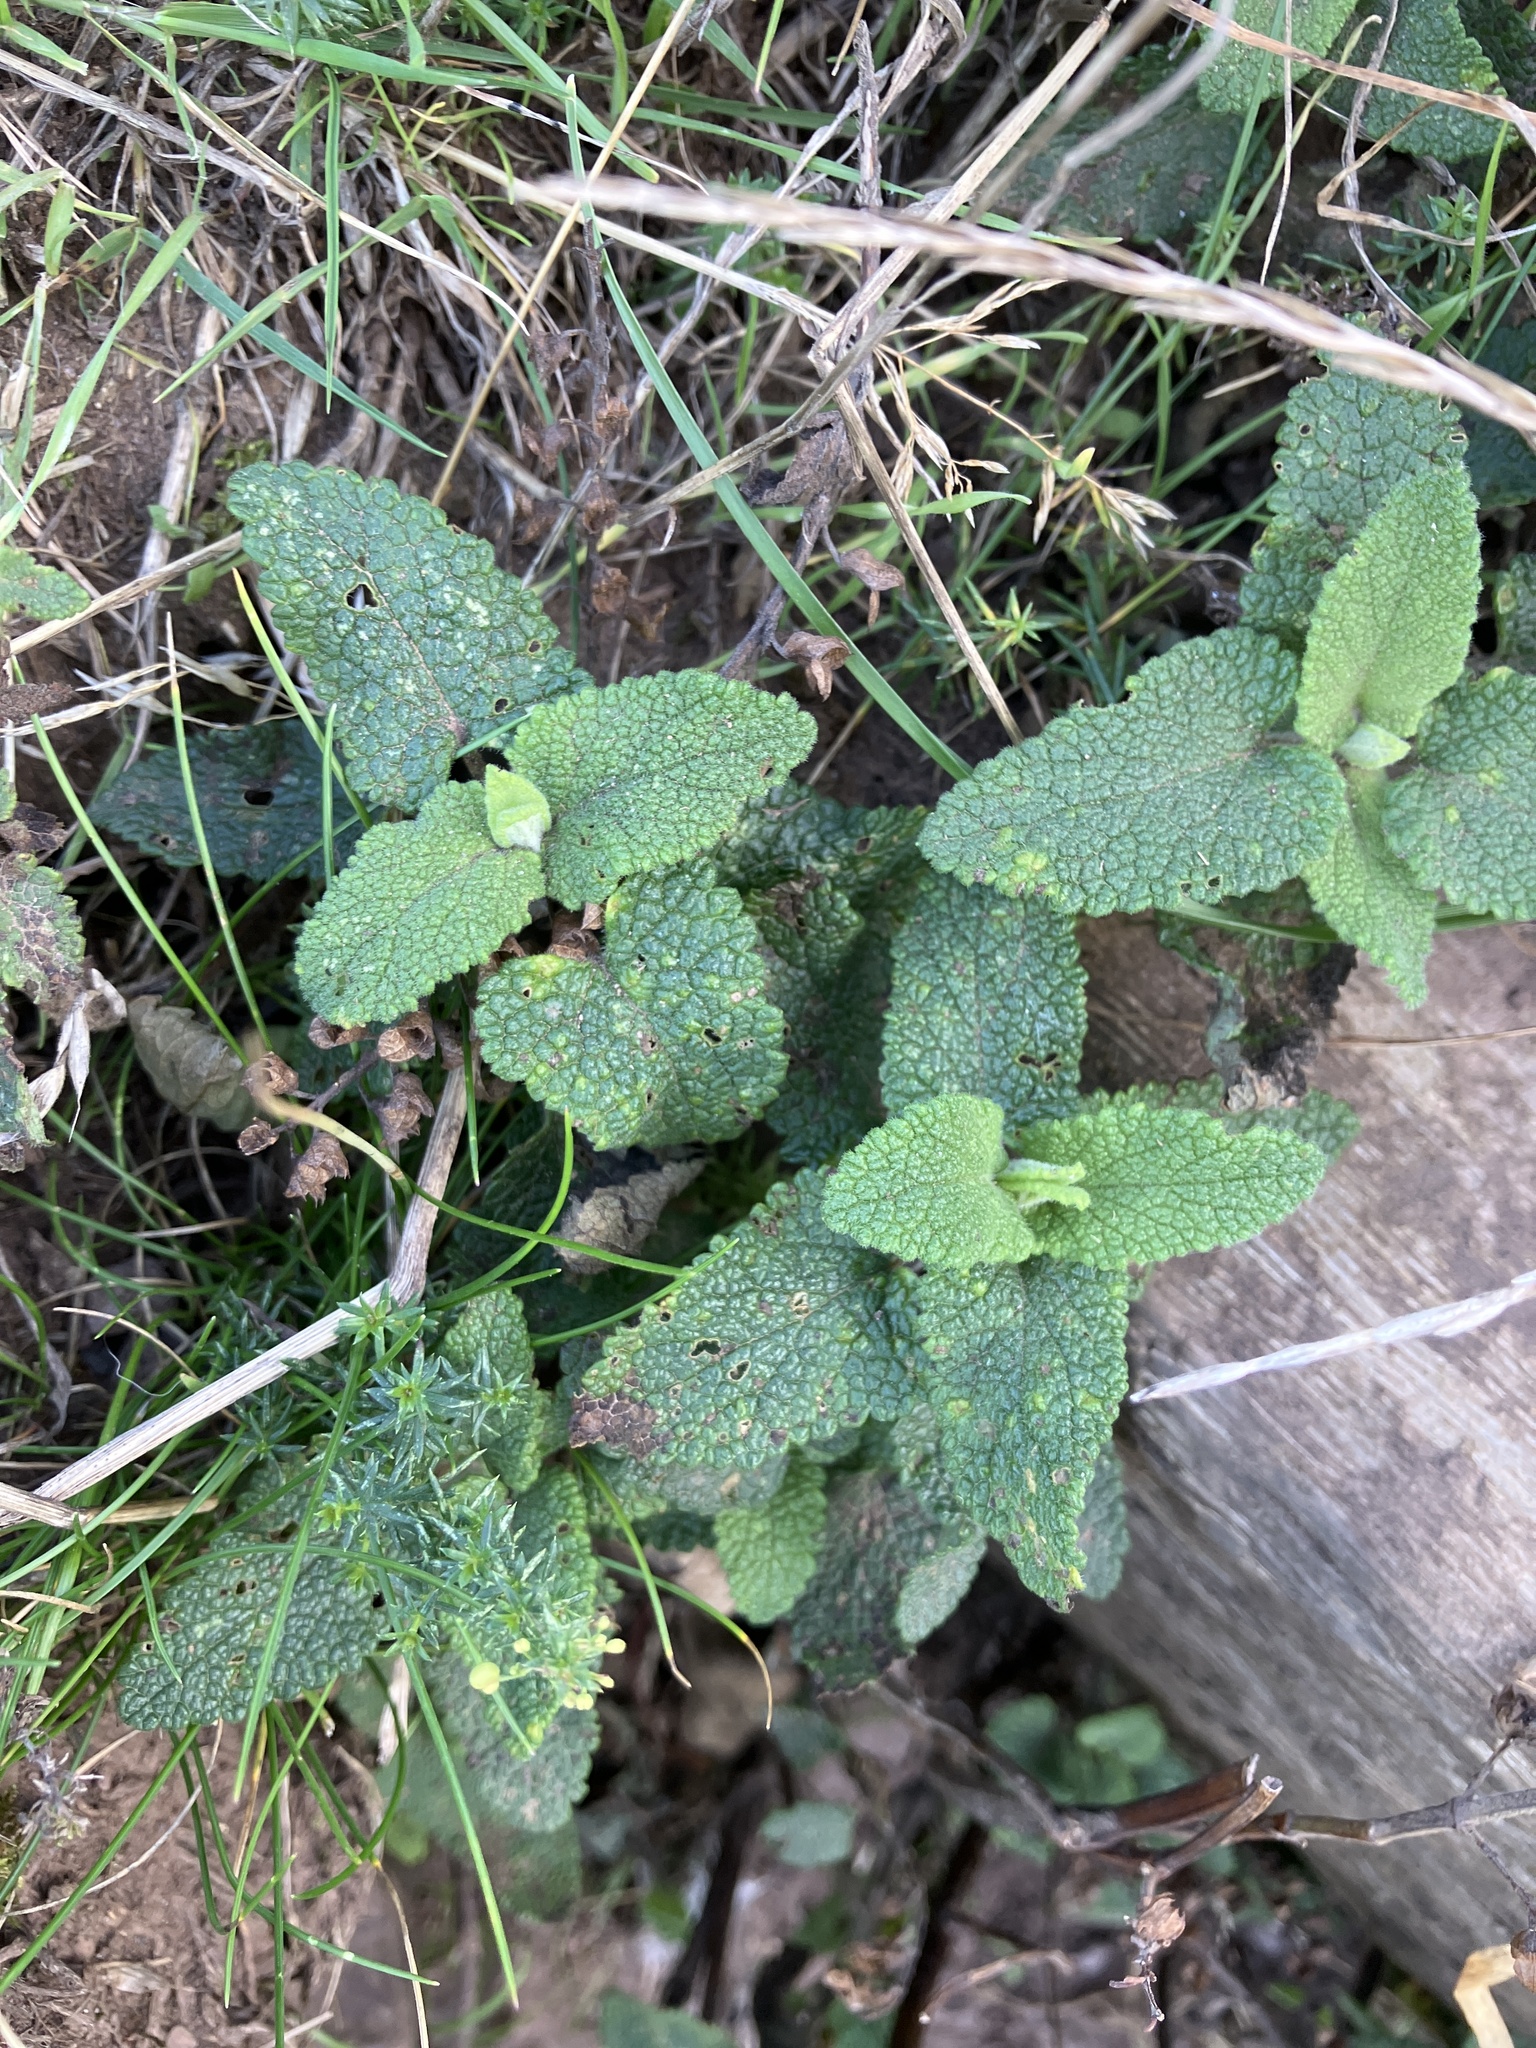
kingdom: Plantae
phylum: Tracheophyta
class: Magnoliopsida
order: Lamiales
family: Lamiaceae
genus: Teucrium
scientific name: Teucrium scorodonia
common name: Woodland germander
